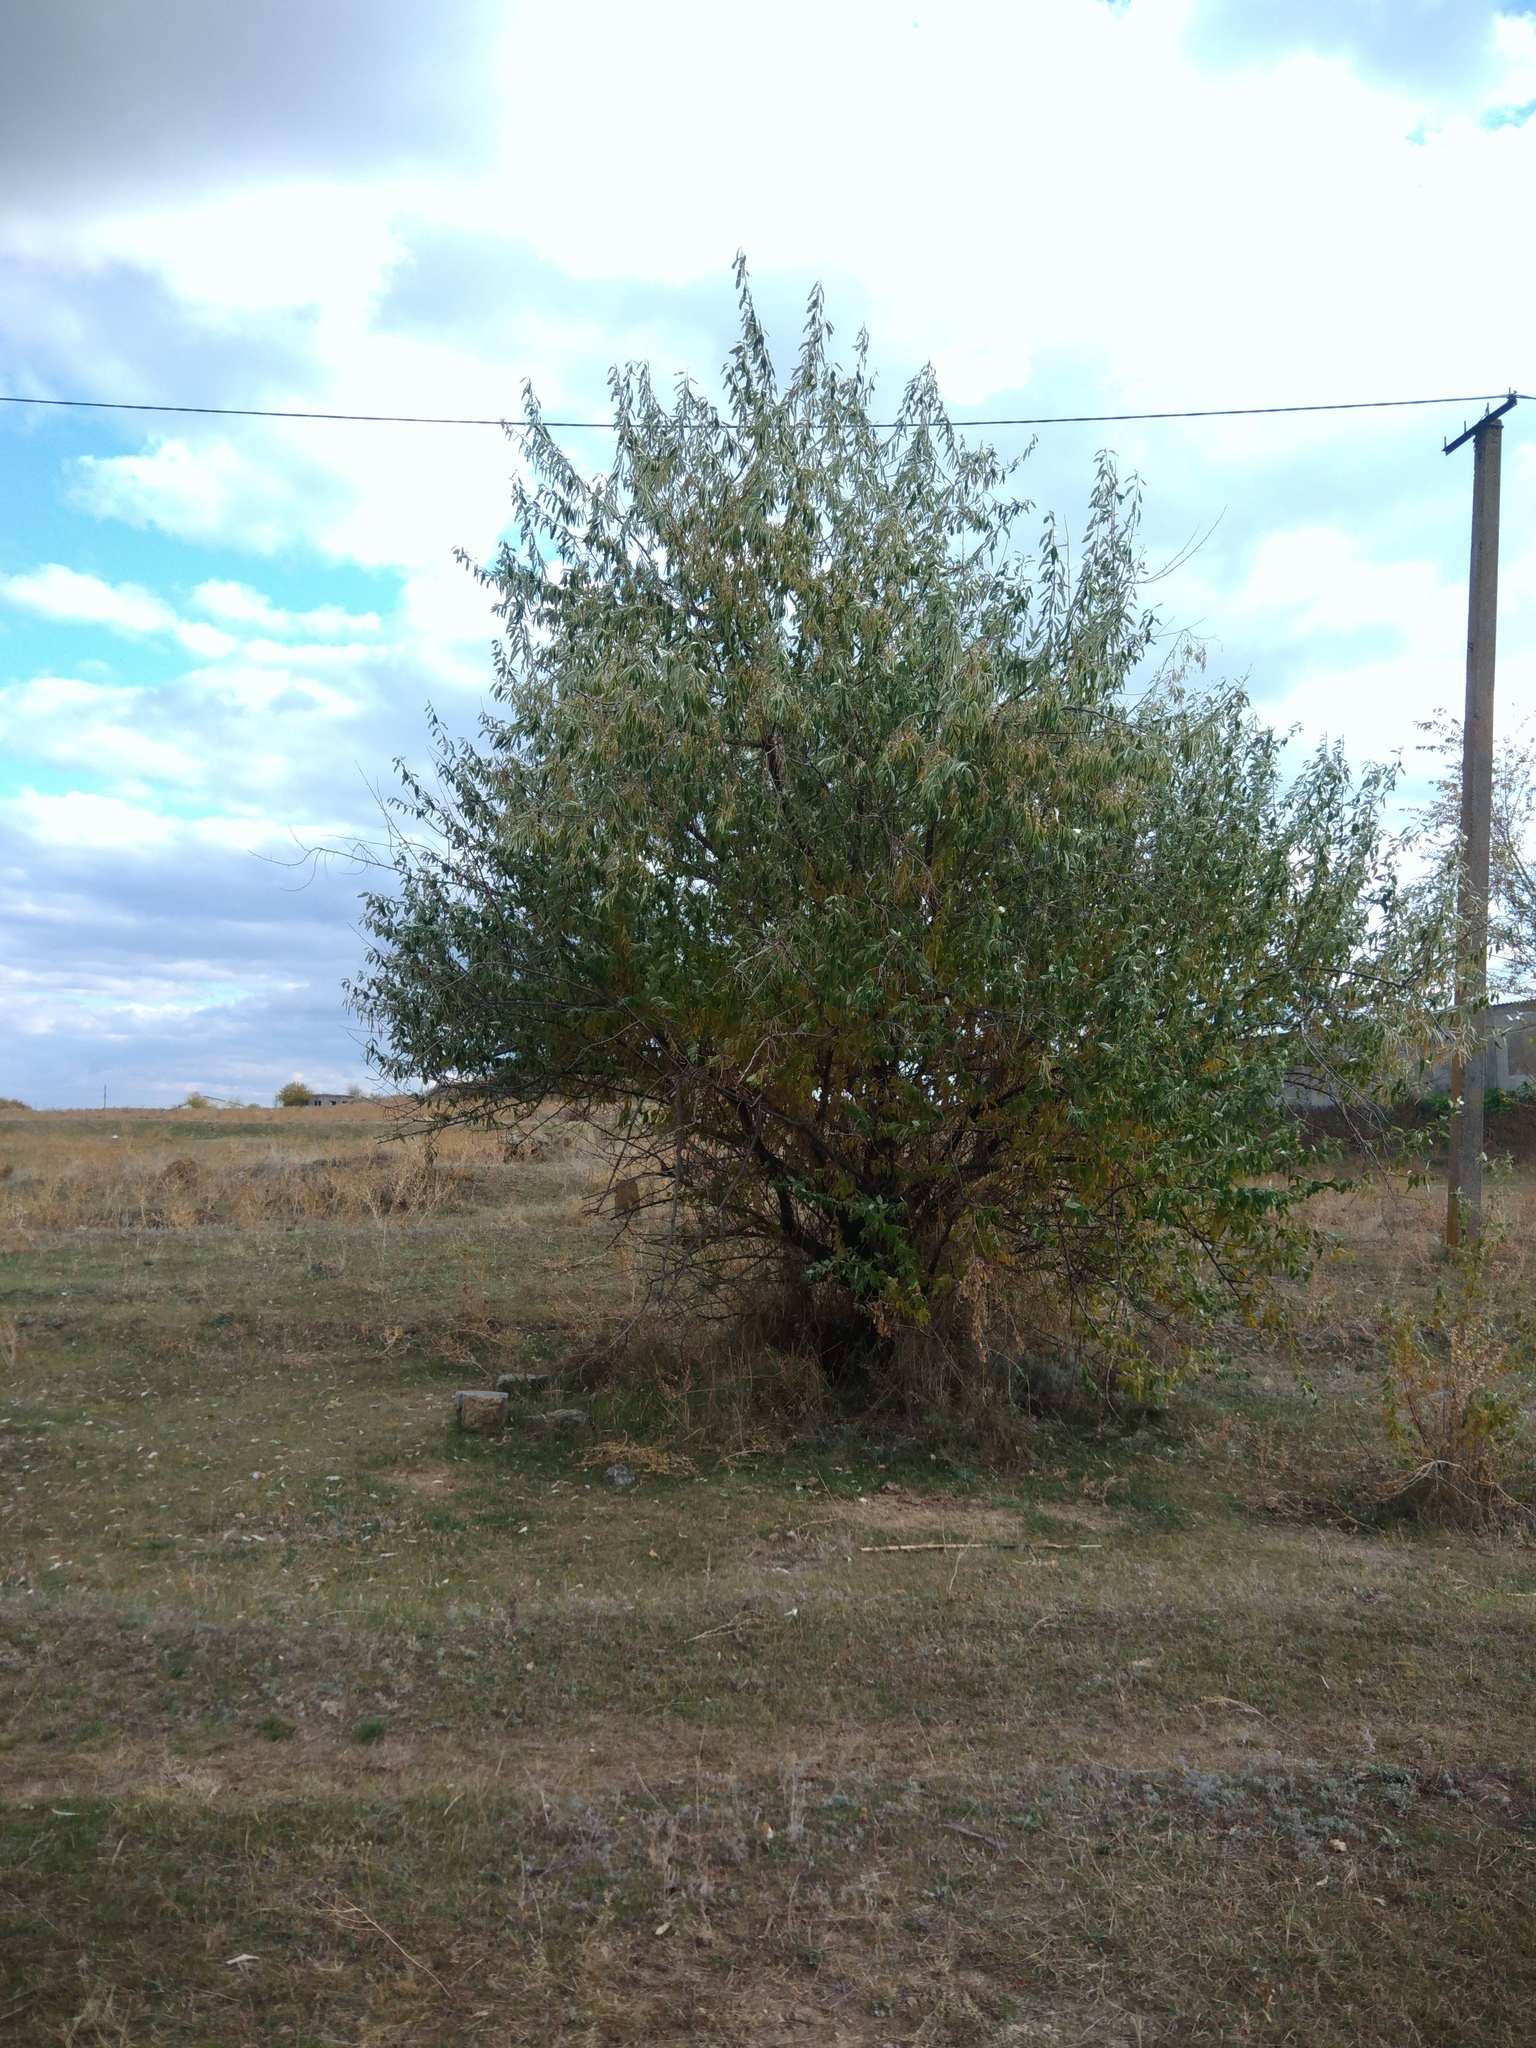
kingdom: Plantae
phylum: Tracheophyta
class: Magnoliopsida
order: Rosales
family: Elaeagnaceae
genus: Elaeagnus
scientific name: Elaeagnus angustifolia
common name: Russian olive
